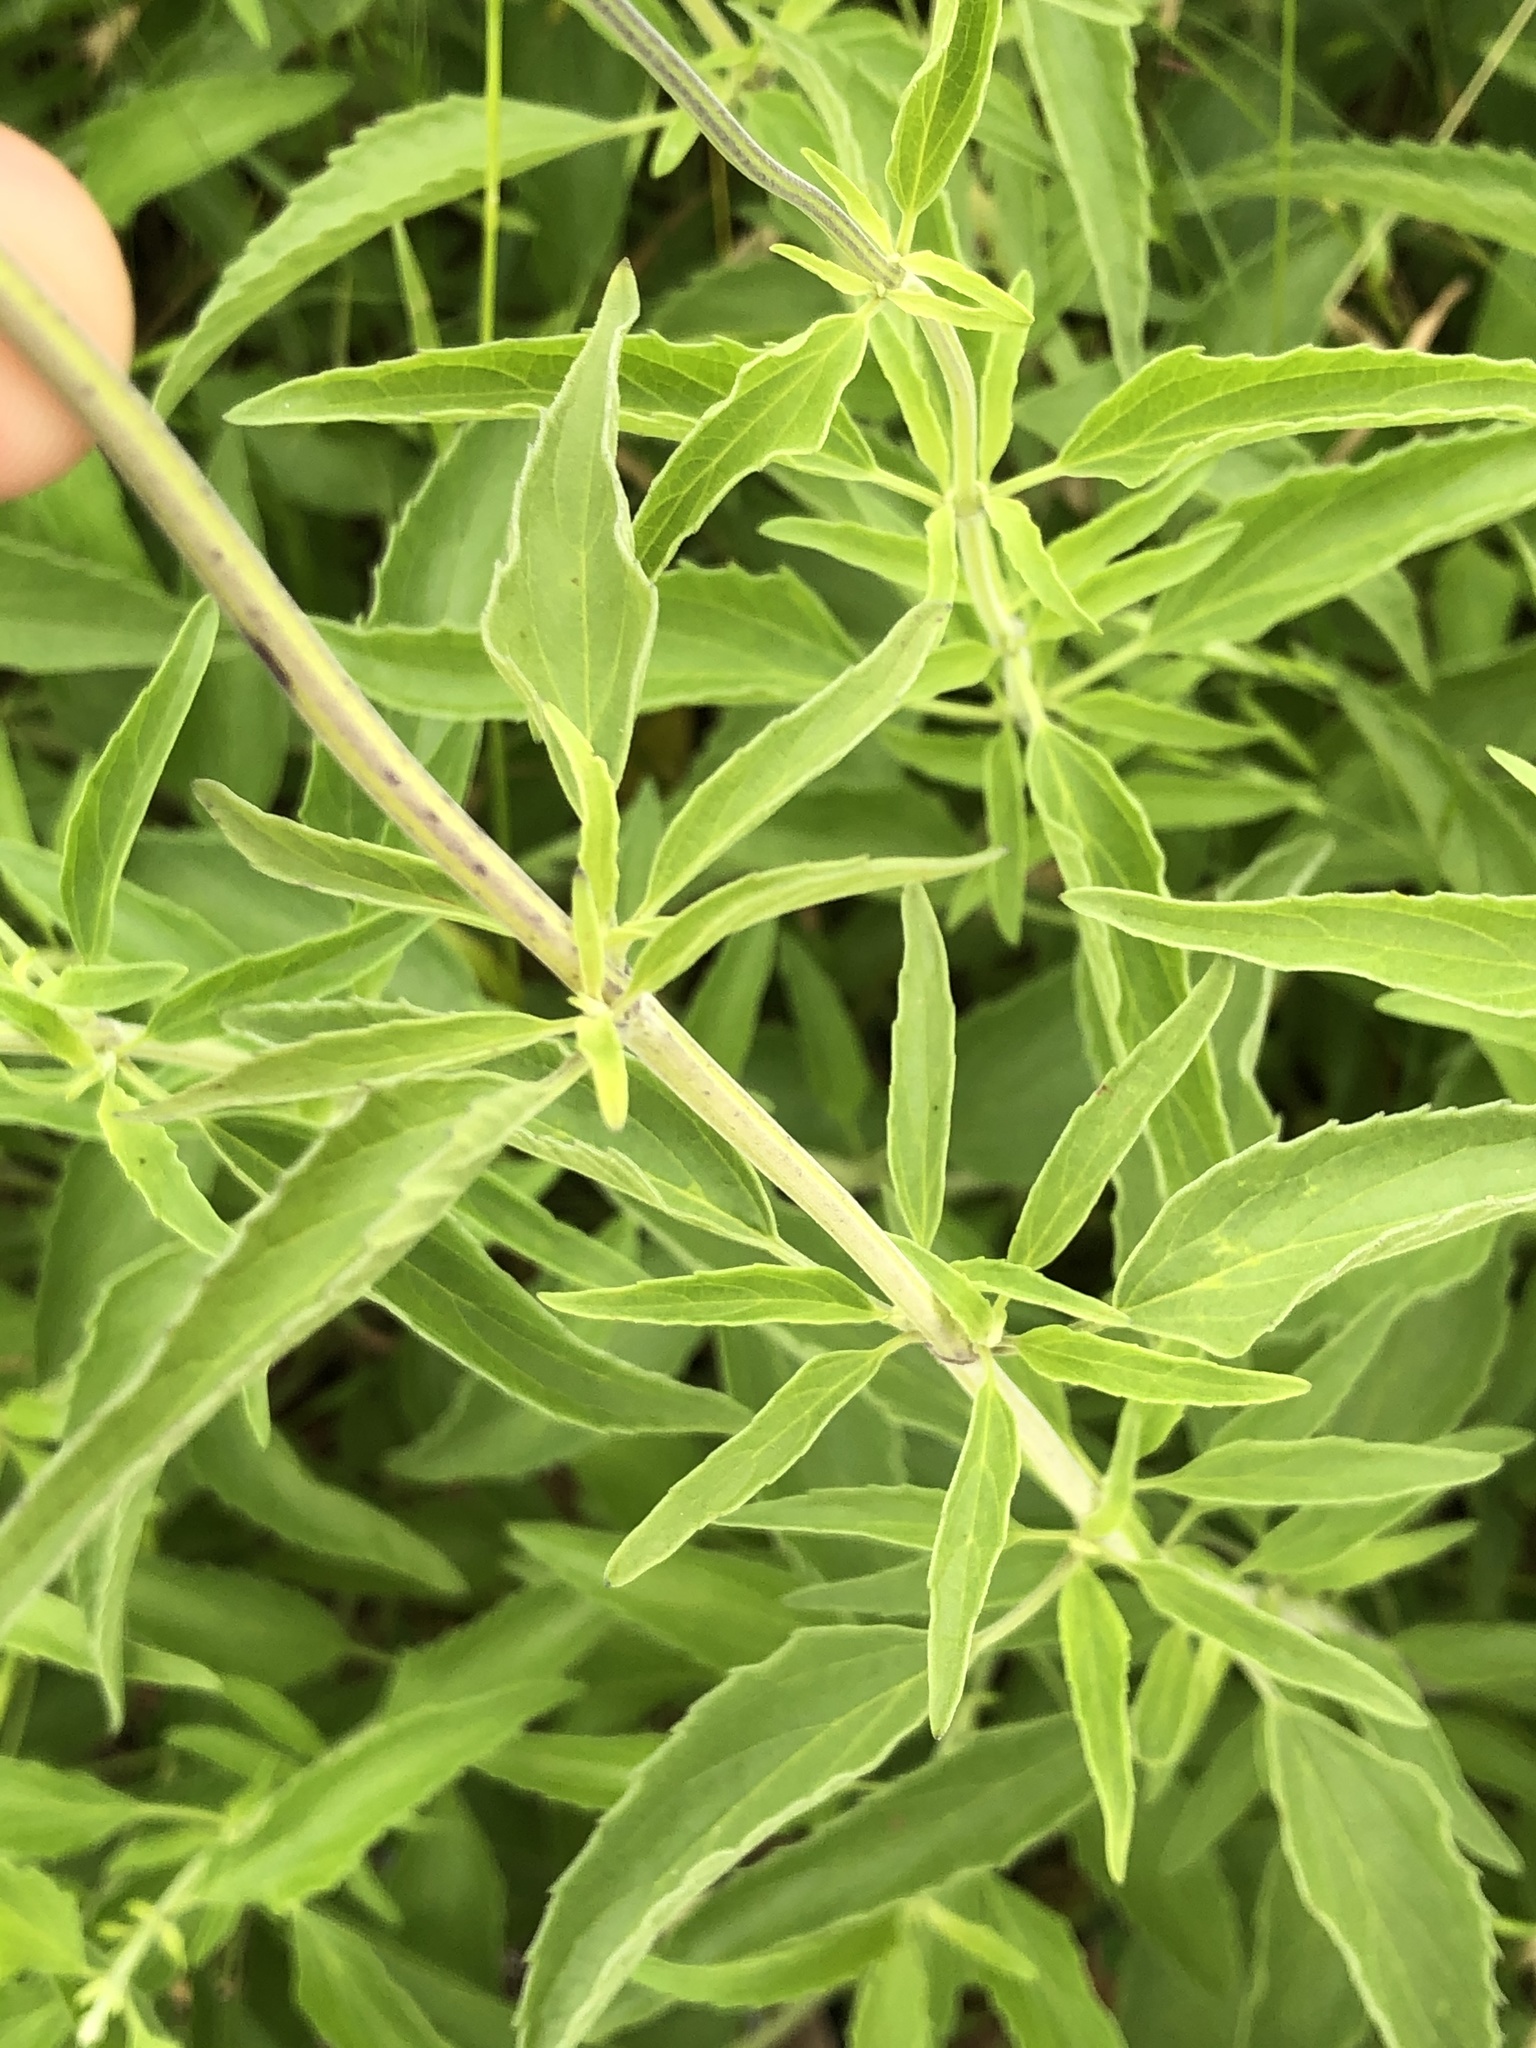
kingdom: Plantae
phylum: Tracheophyta
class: Magnoliopsida
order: Lamiales
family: Lamiaceae
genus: Salvia
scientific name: Salvia farinacea
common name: Mealy sage
